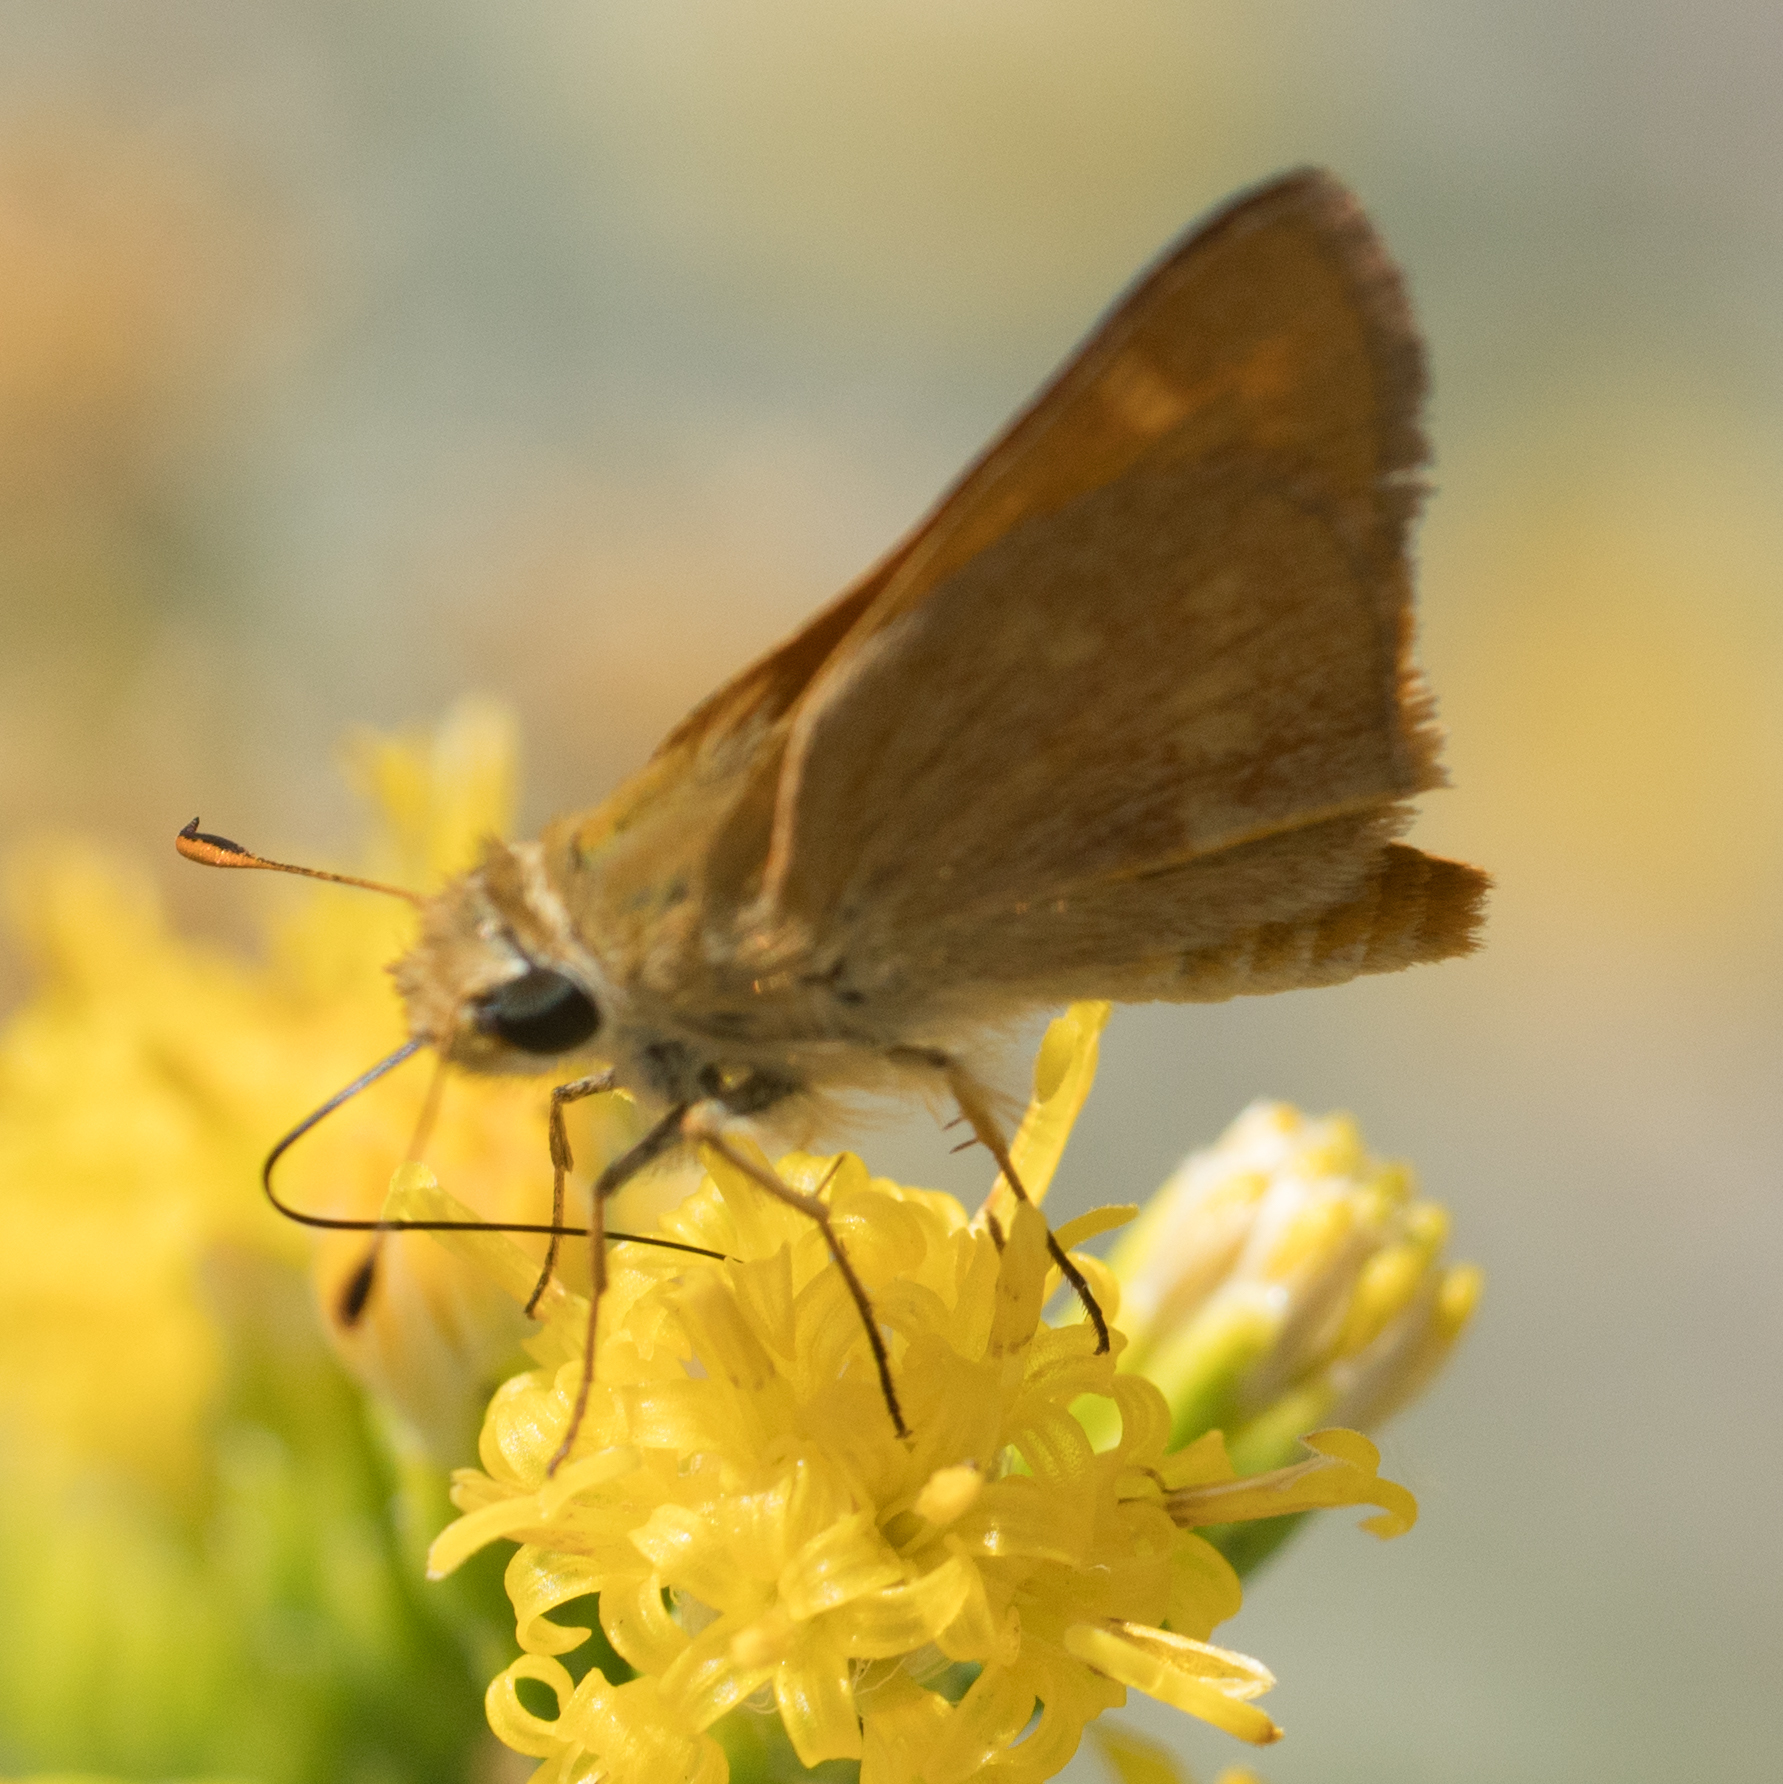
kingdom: Animalia
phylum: Arthropoda
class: Insecta
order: Lepidoptera
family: Hesperiidae
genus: Ochlodes
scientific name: Ochlodes sylvanoides
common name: Woodland skipper
